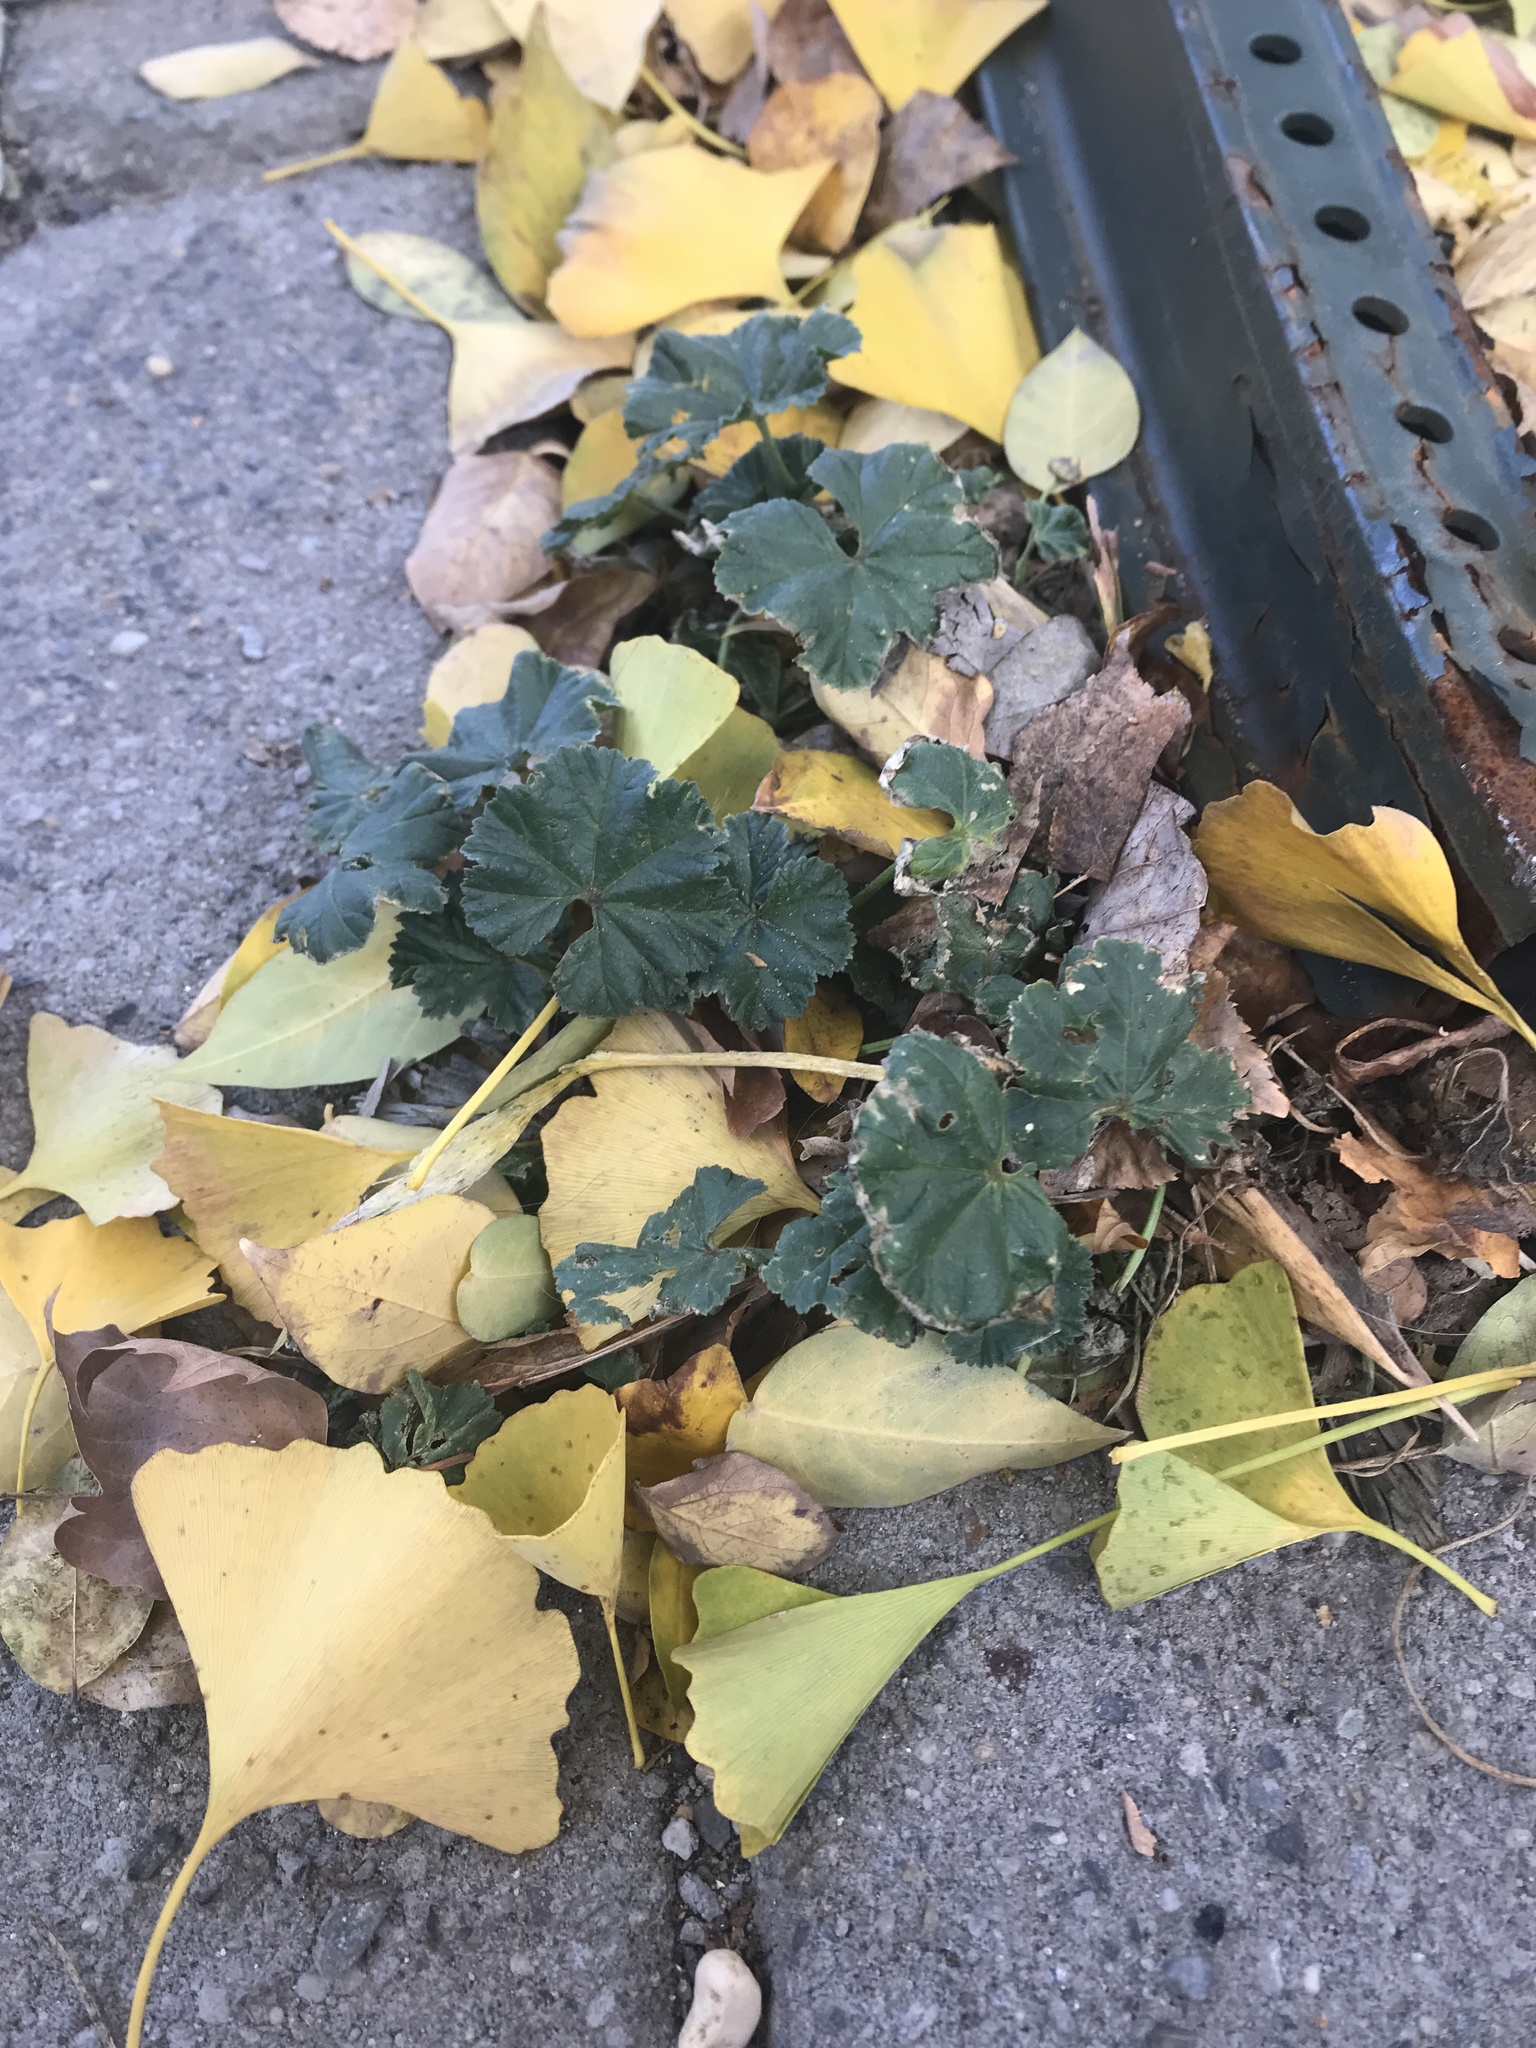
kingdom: Plantae
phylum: Tracheophyta
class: Magnoliopsida
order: Malvales
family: Malvaceae
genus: Malva
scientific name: Malva neglecta
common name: Common mallow
